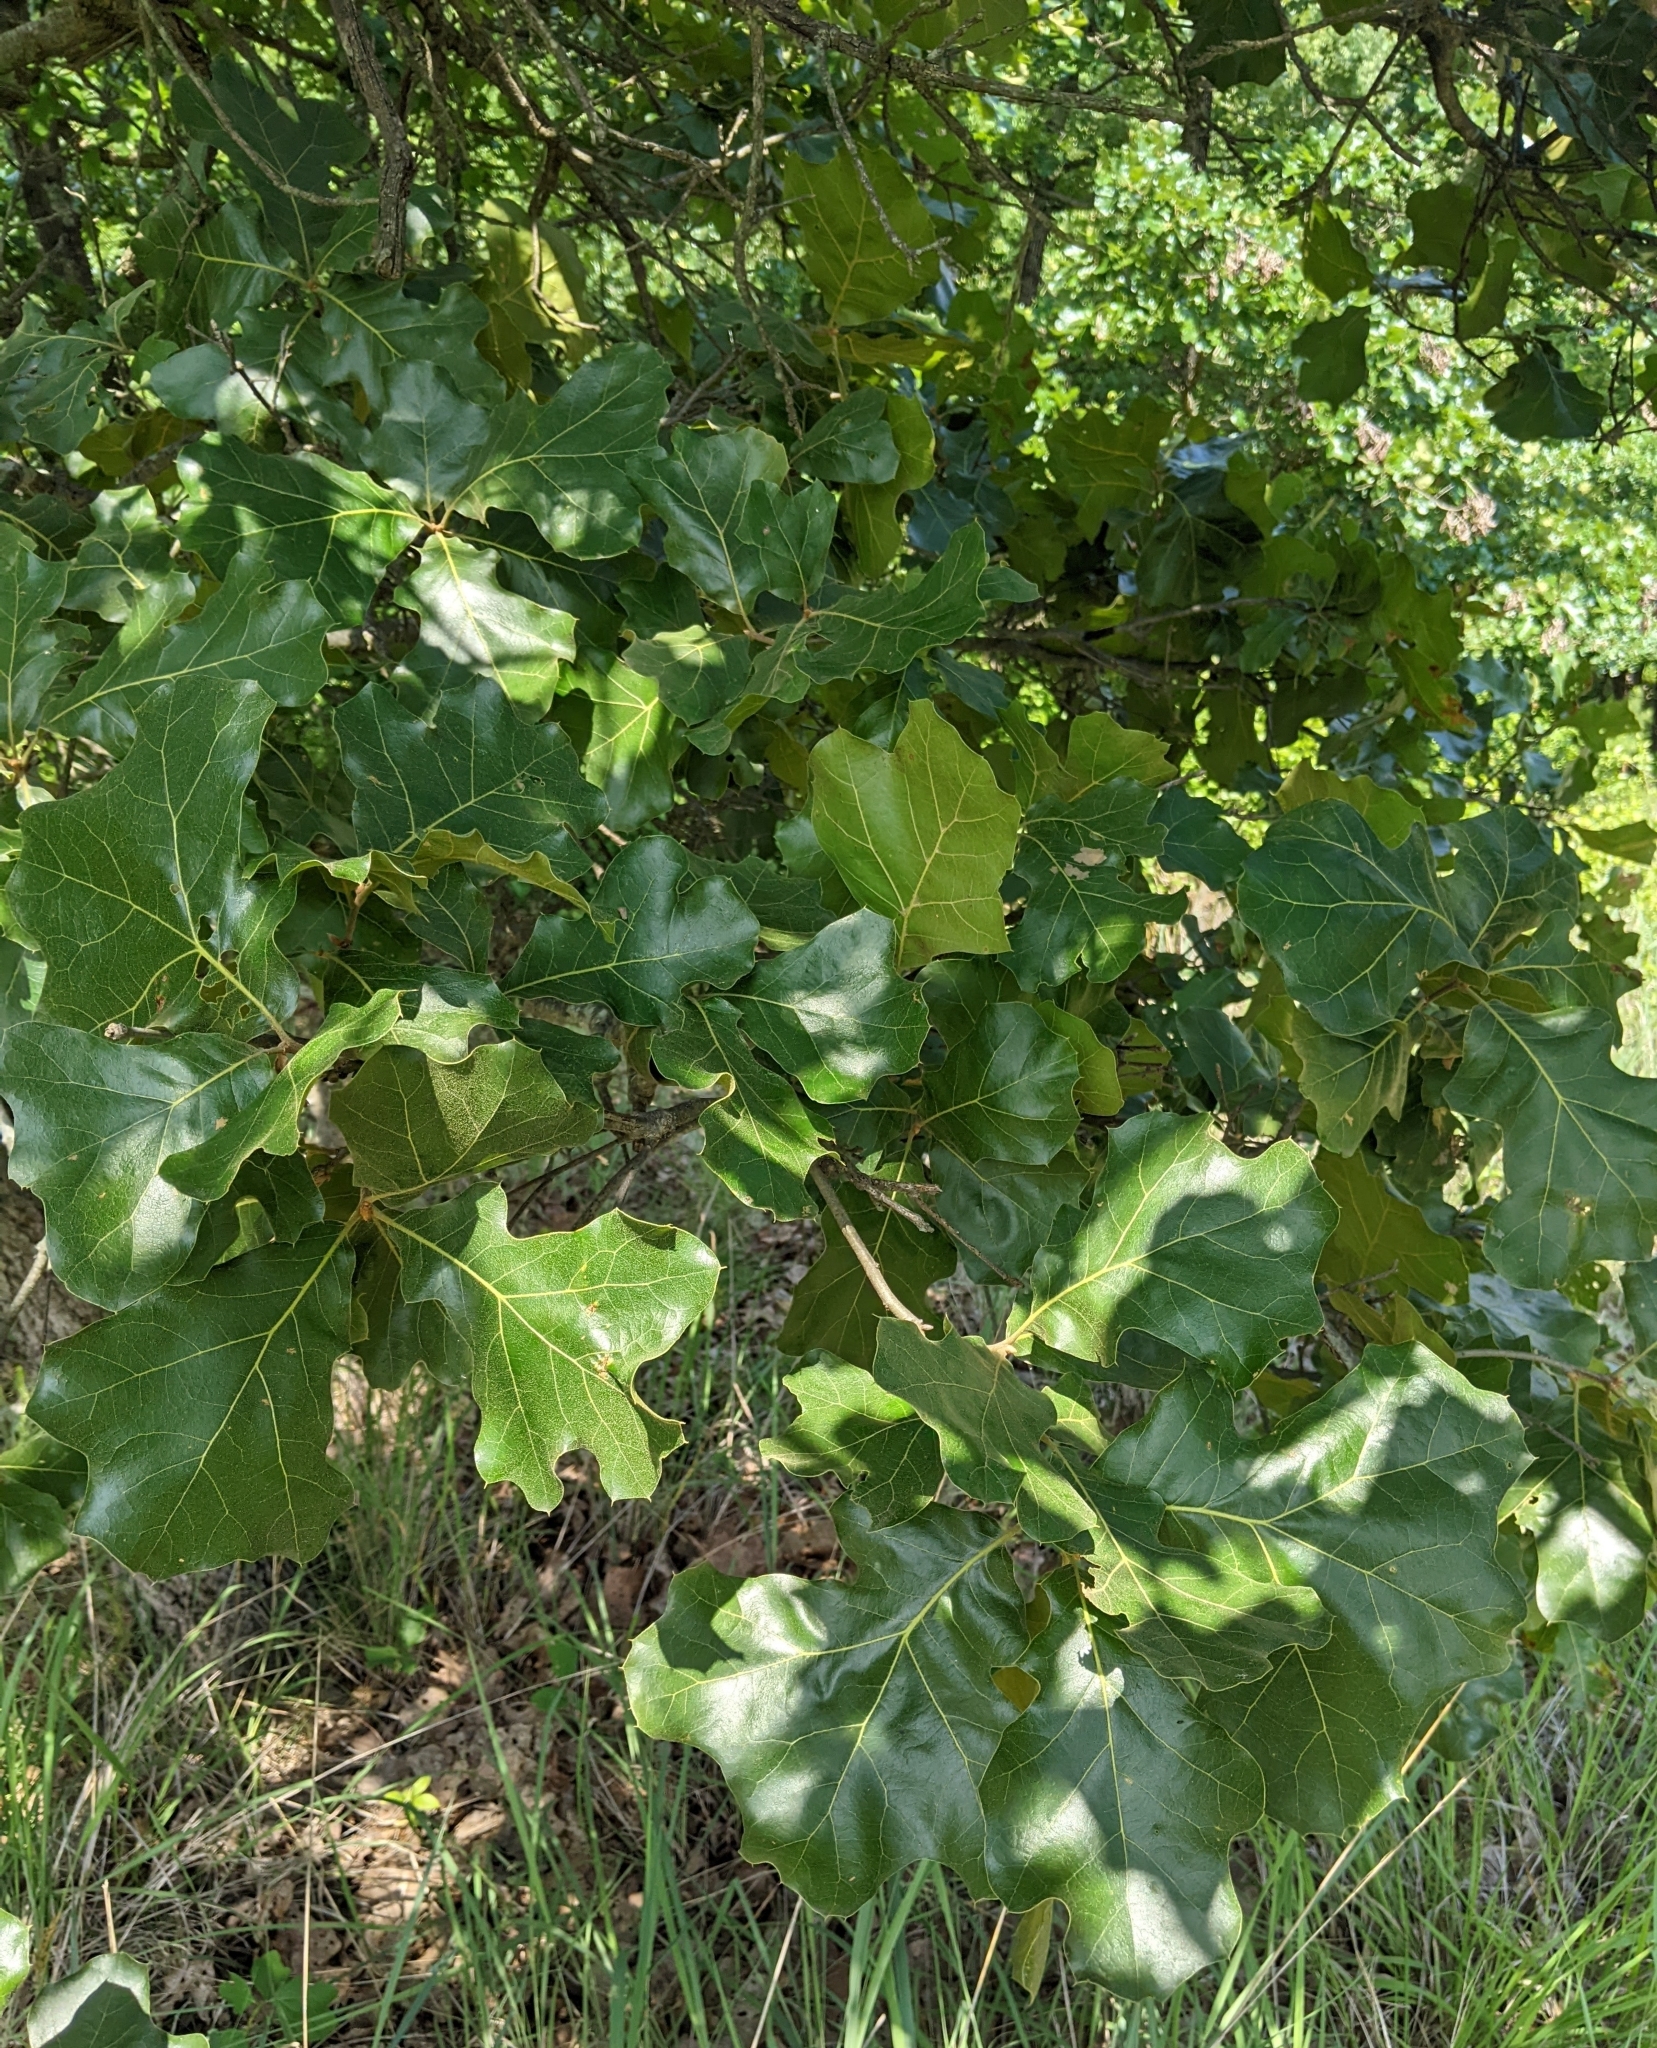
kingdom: Plantae
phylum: Tracheophyta
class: Magnoliopsida
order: Fagales
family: Fagaceae
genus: Quercus
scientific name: Quercus marilandica
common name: Blackjack oak
